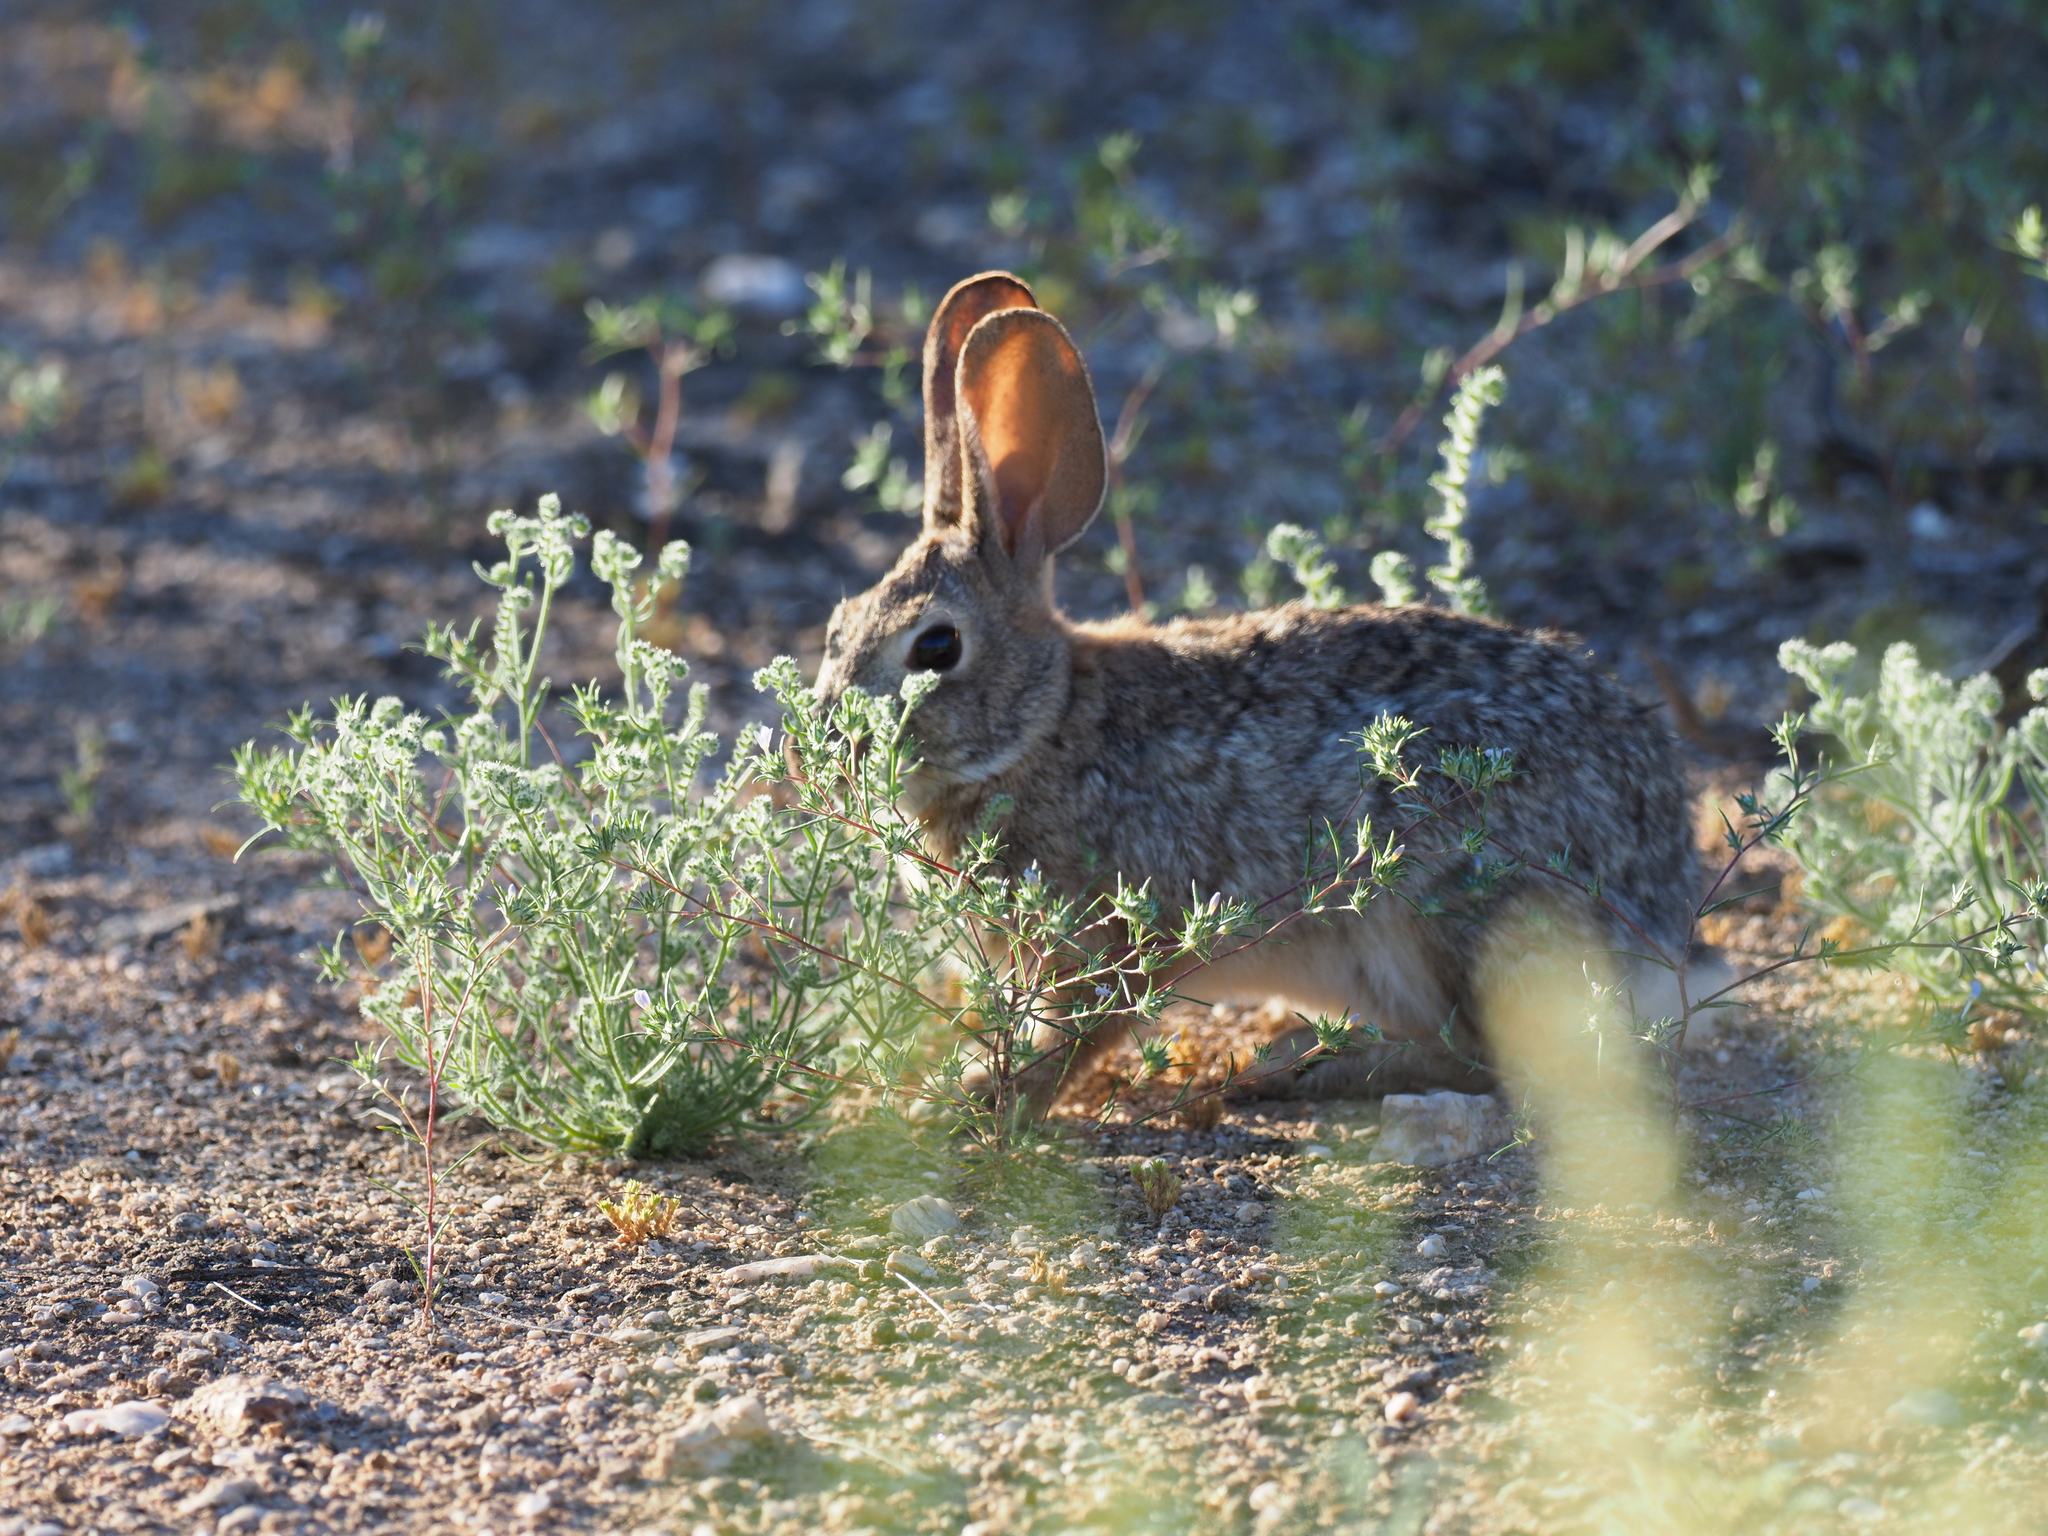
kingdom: Animalia
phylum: Chordata
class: Mammalia
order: Lagomorpha
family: Leporidae
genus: Sylvilagus
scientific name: Sylvilagus audubonii
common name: Desert cottontail
